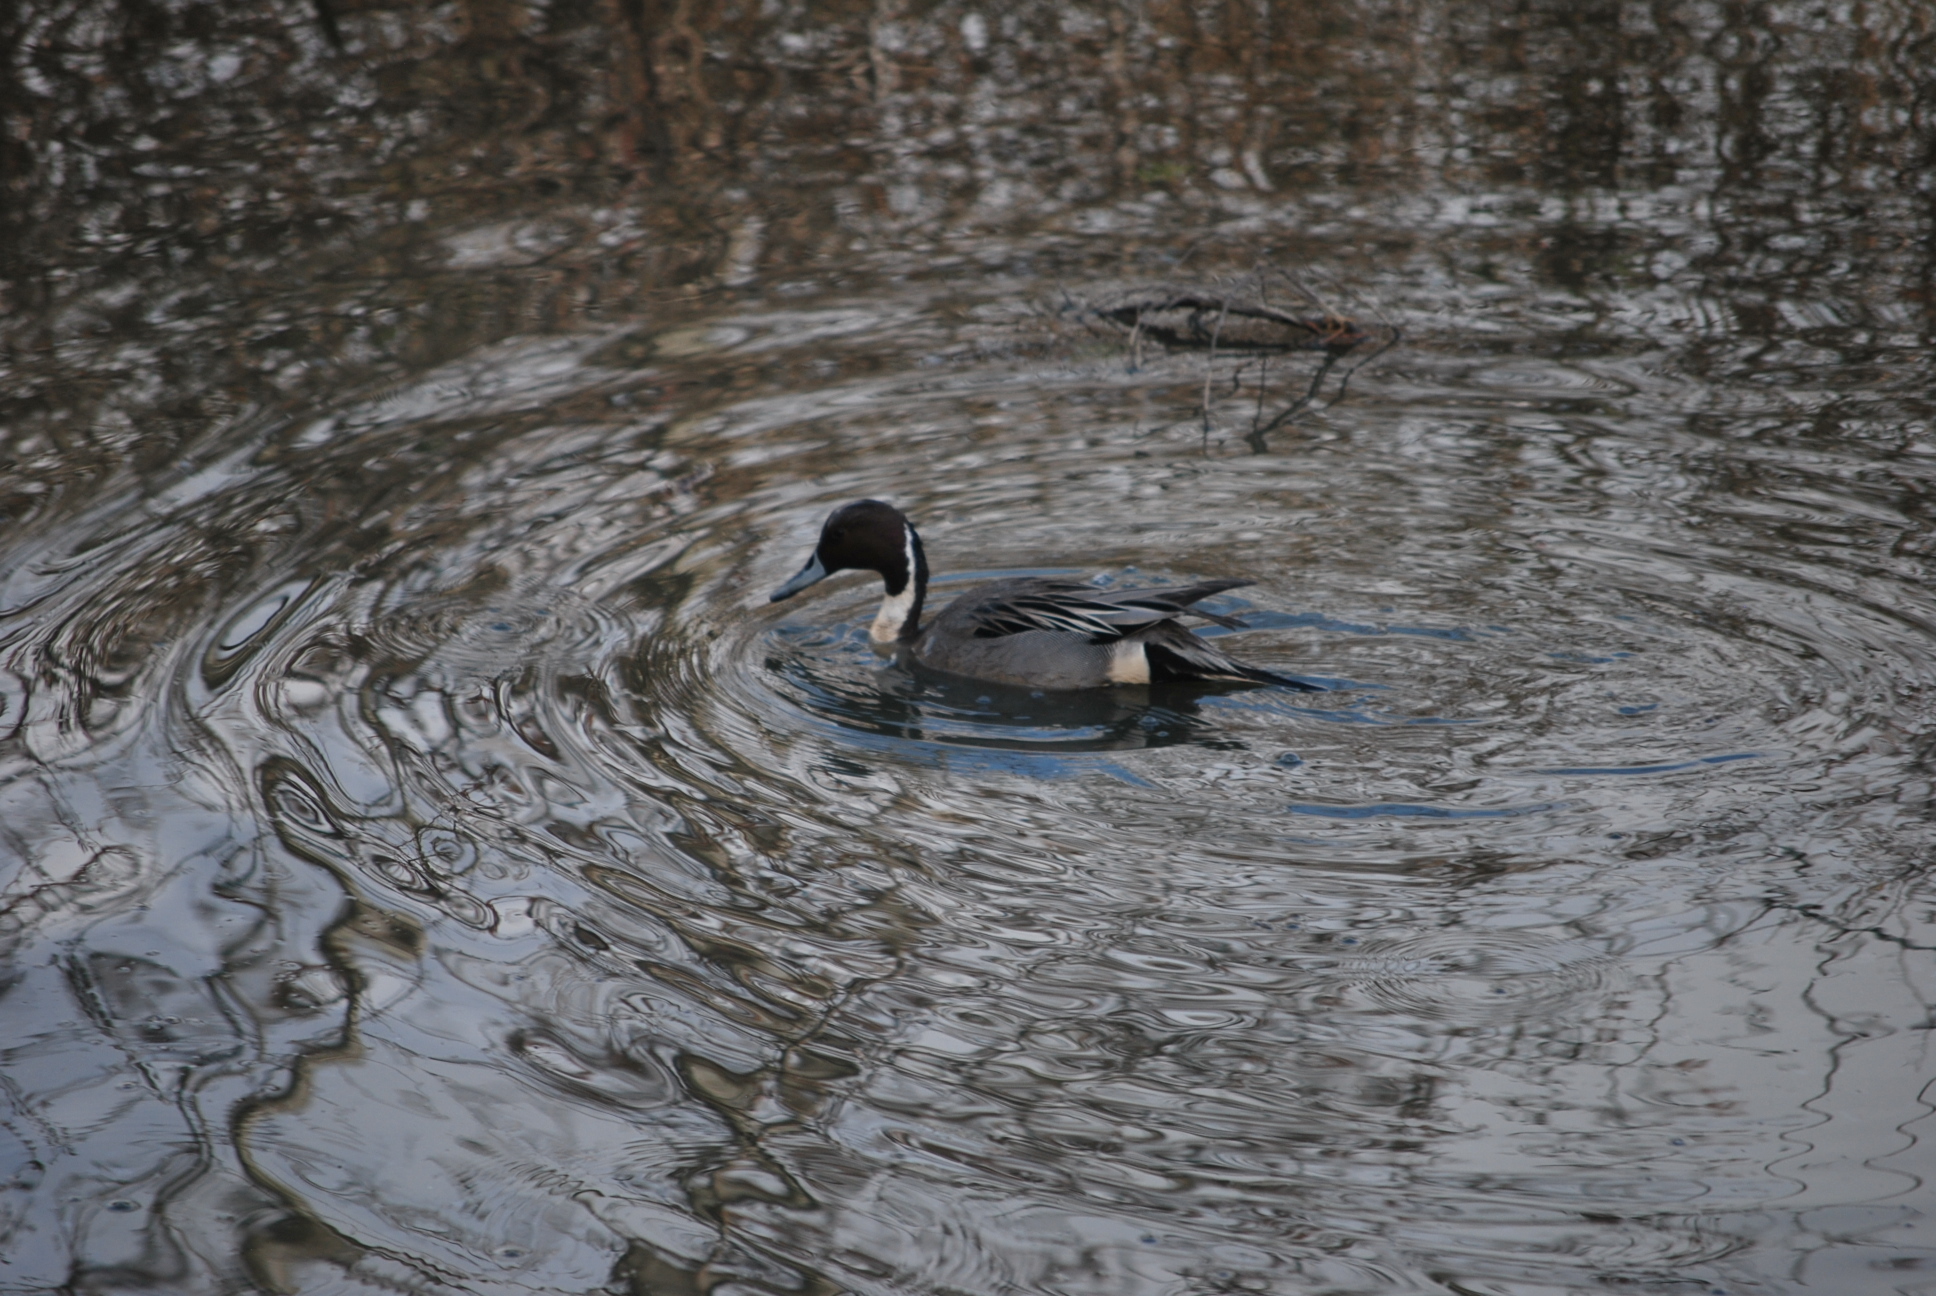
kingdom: Animalia
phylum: Chordata
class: Aves
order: Anseriformes
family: Anatidae
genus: Anas
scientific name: Anas acuta
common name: Northern pintail
